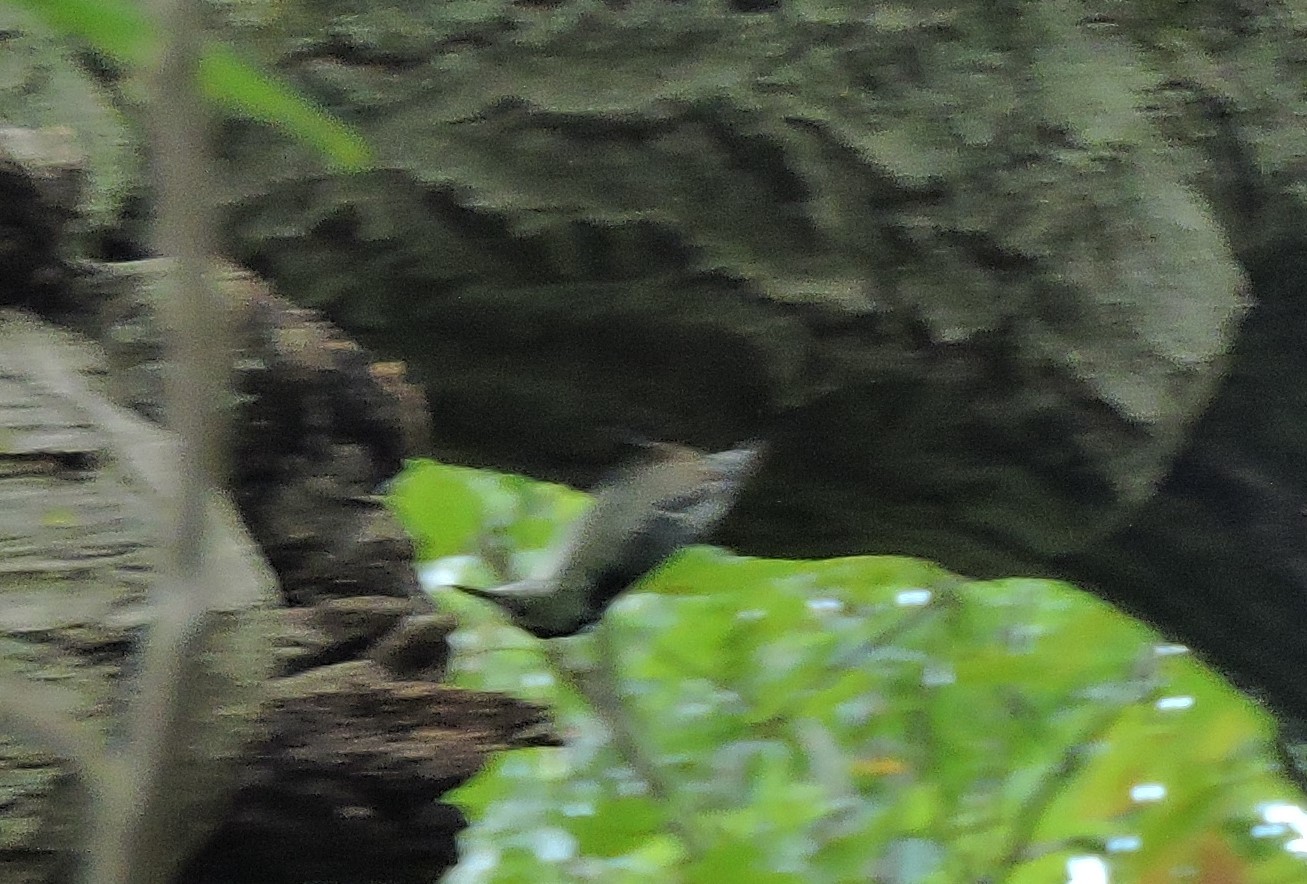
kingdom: Animalia
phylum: Chordata
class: Aves
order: Passeriformes
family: Sittidae
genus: Sitta
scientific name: Sitta carolinensis
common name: White-breasted nuthatch
